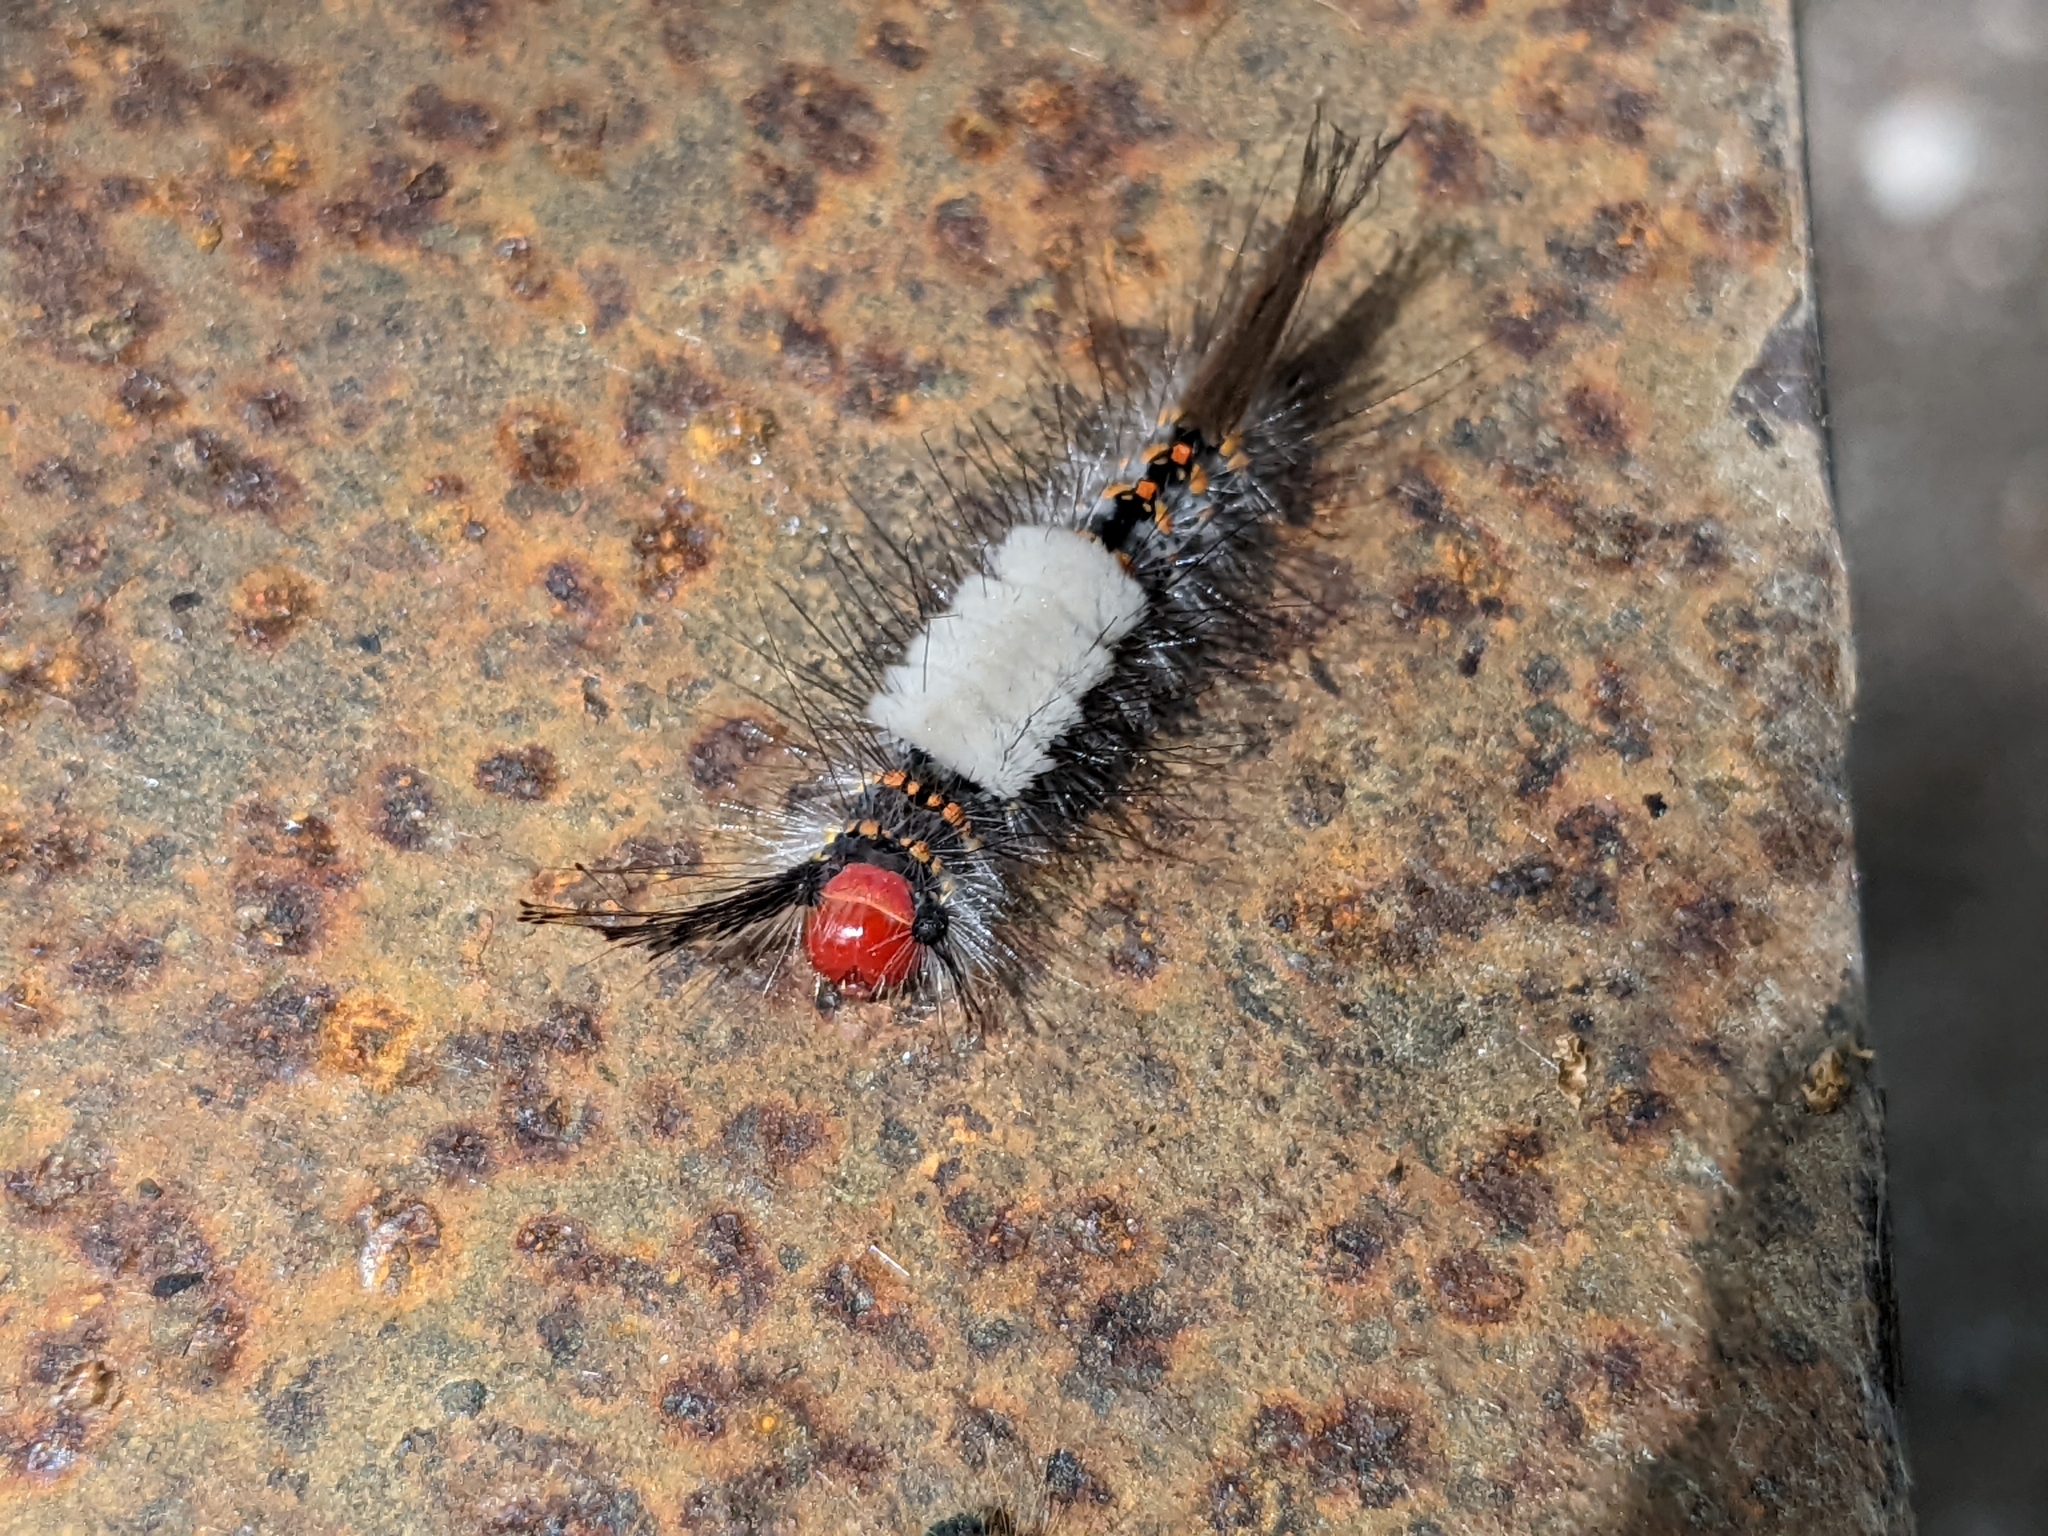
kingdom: Animalia
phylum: Arthropoda
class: Insecta
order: Lepidoptera
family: Erebidae
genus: Orgyia
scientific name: Orgyia detrita
